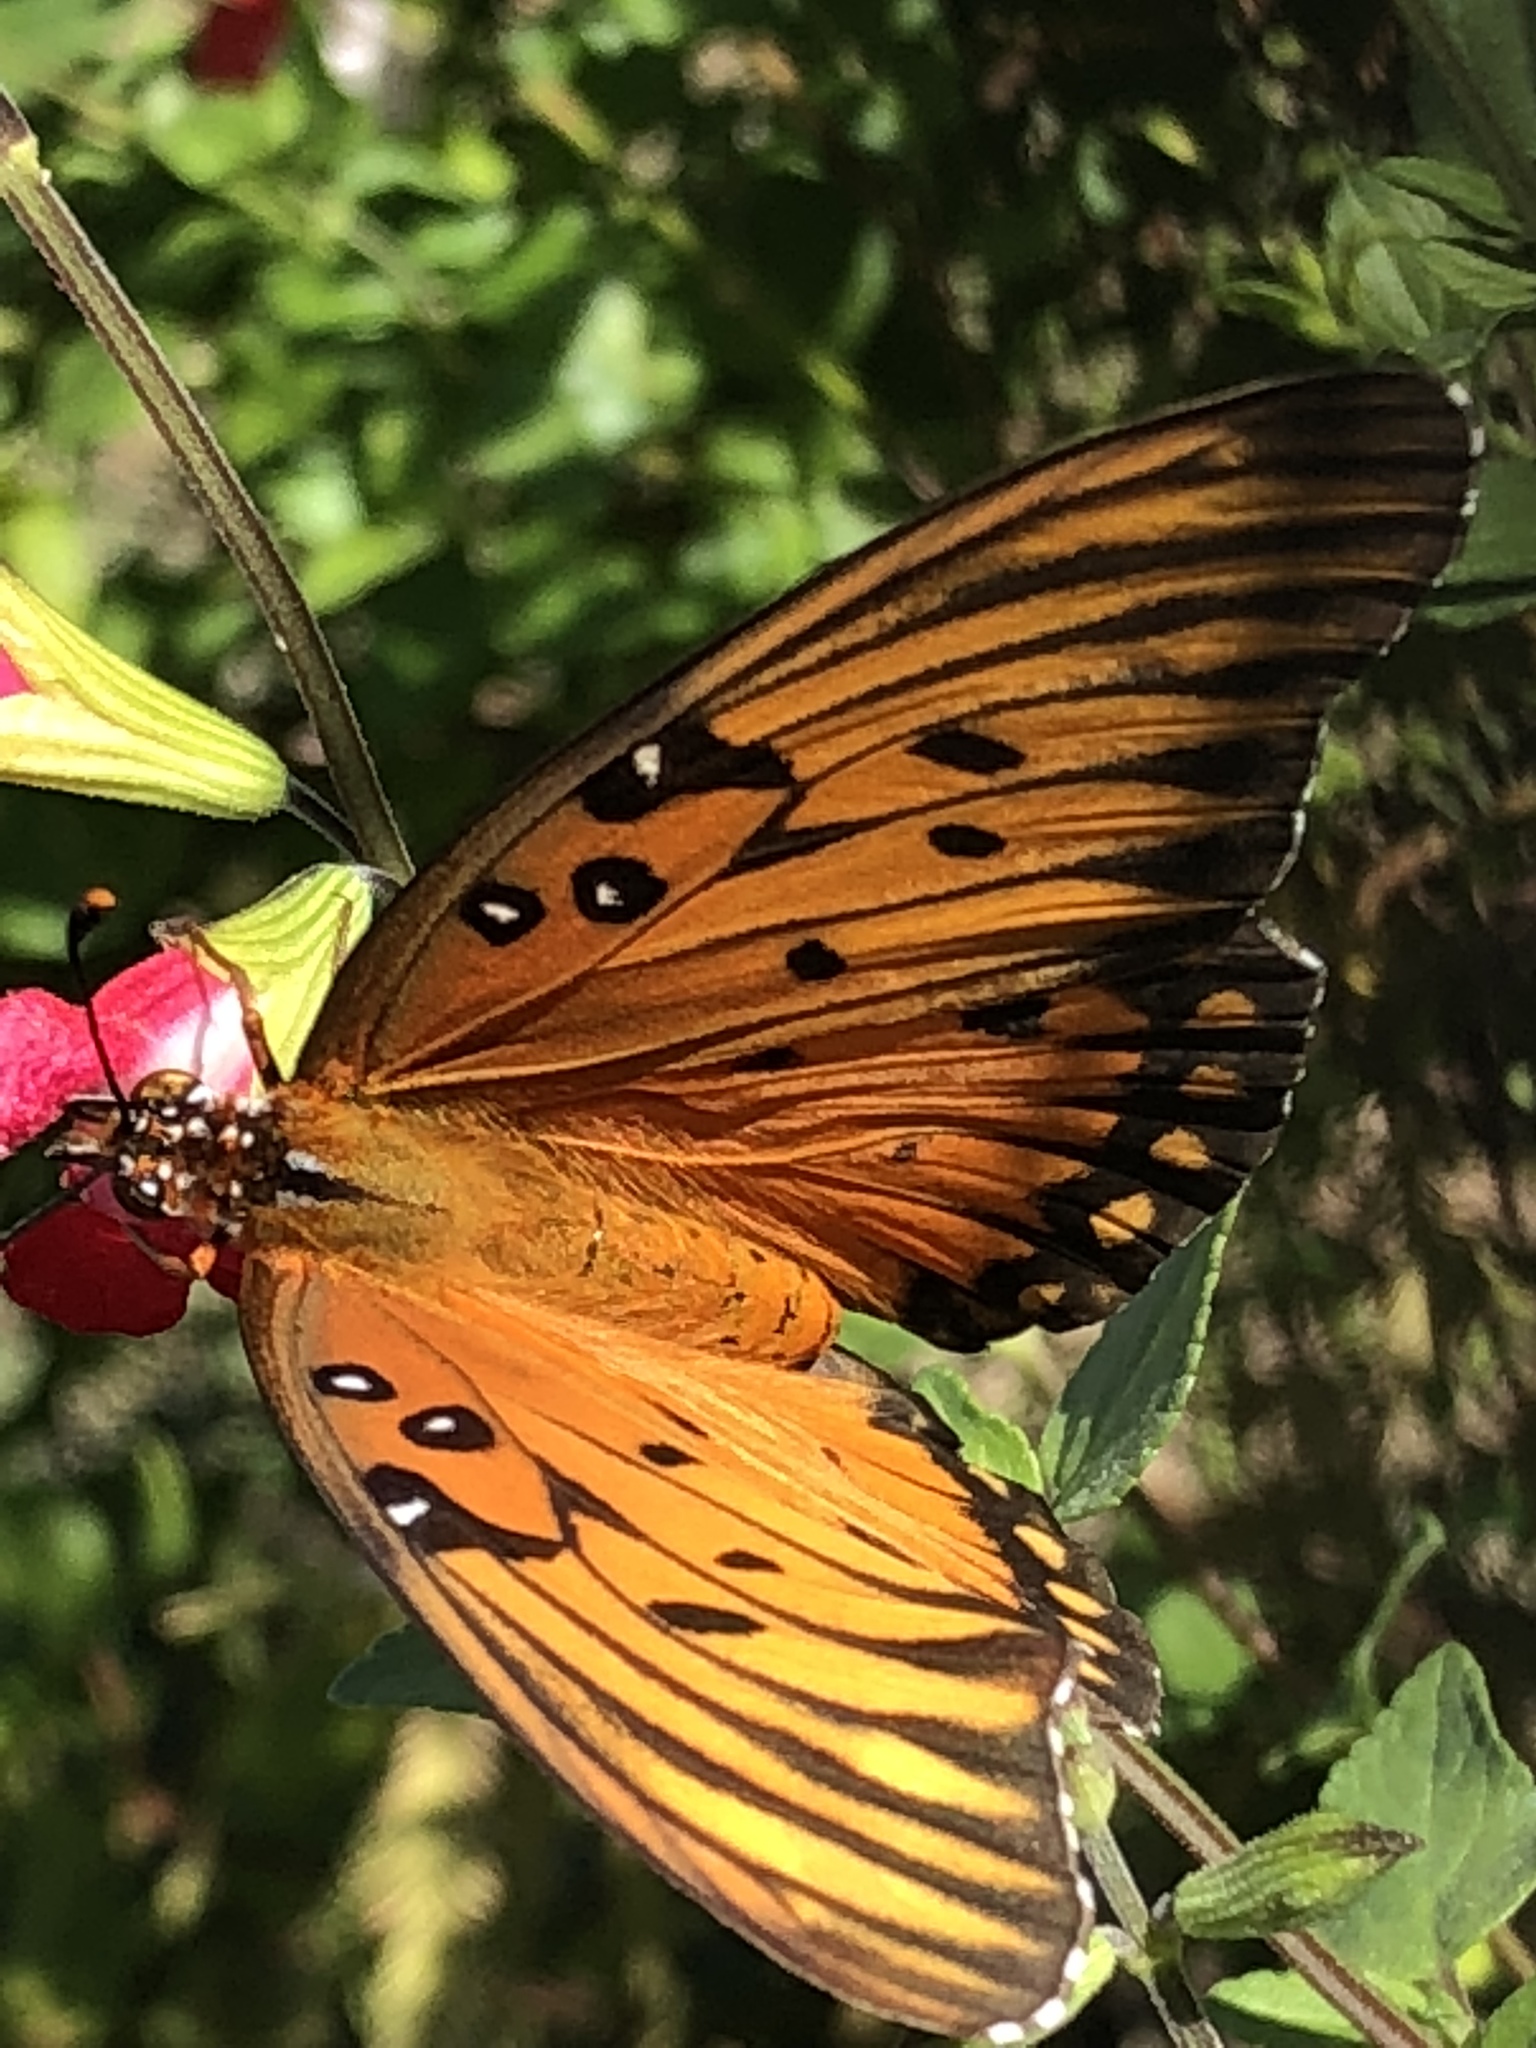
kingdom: Animalia
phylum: Arthropoda
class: Insecta
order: Lepidoptera
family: Nymphalidae
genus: Dione
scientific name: Dione vanillae
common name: Gulf fritillary
